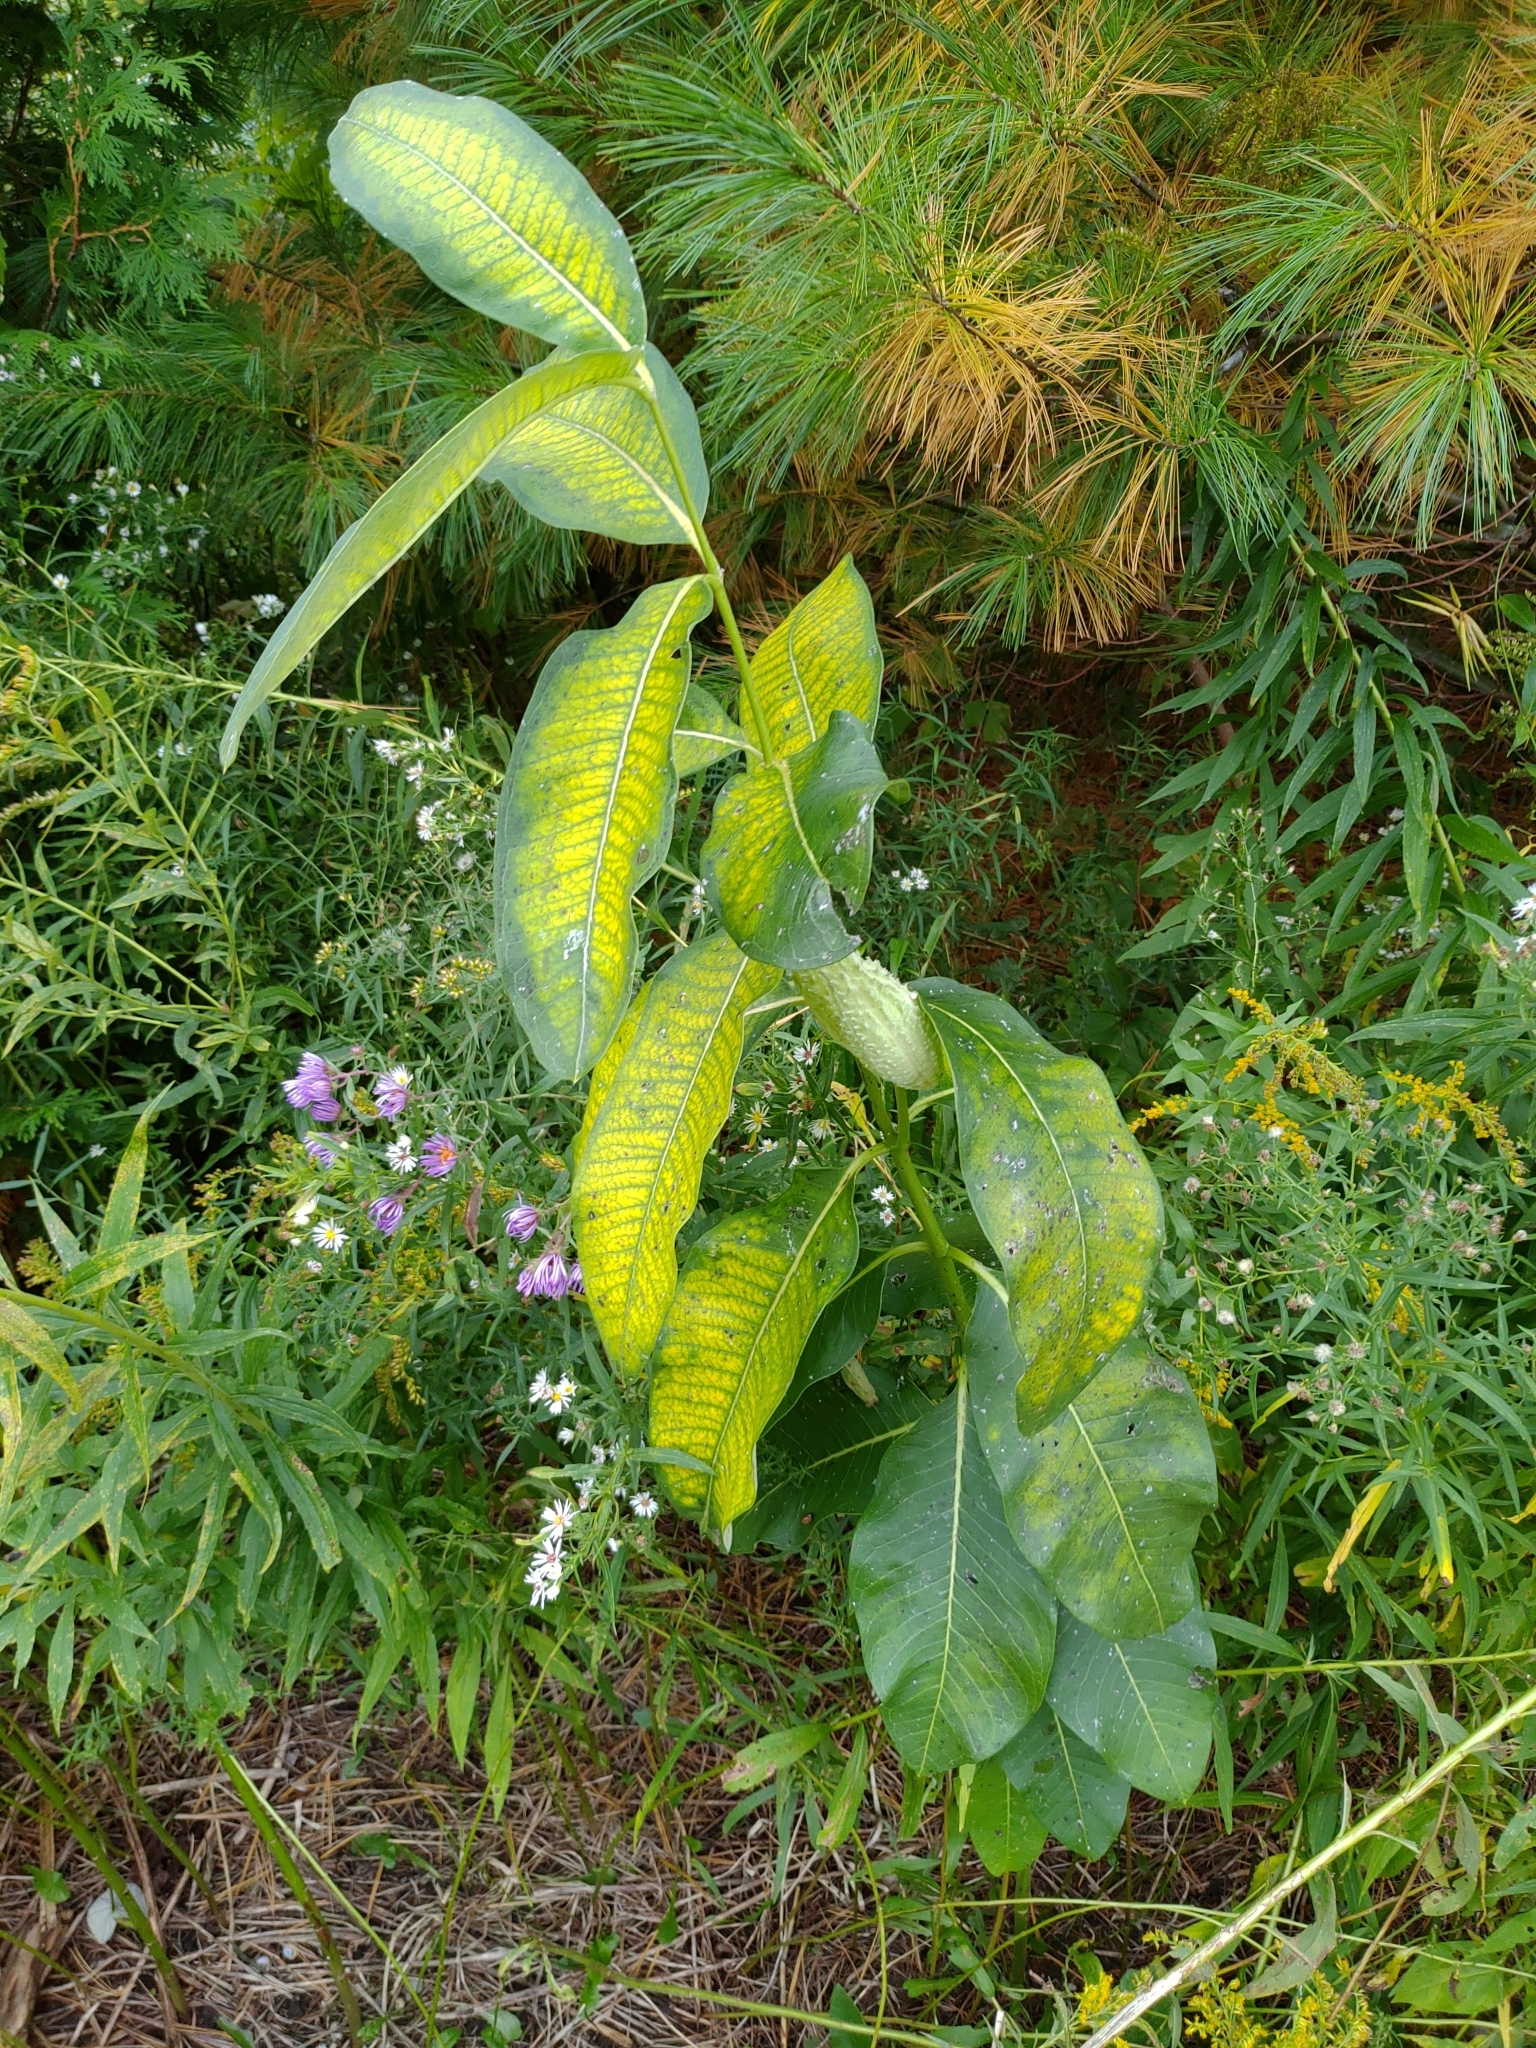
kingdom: Plantae
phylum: Tracheophyta
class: Magnoliopsida
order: Gentianales
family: Apocynaceae
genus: Asclepias
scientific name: Asclepias syriaca
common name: Common milkweed
